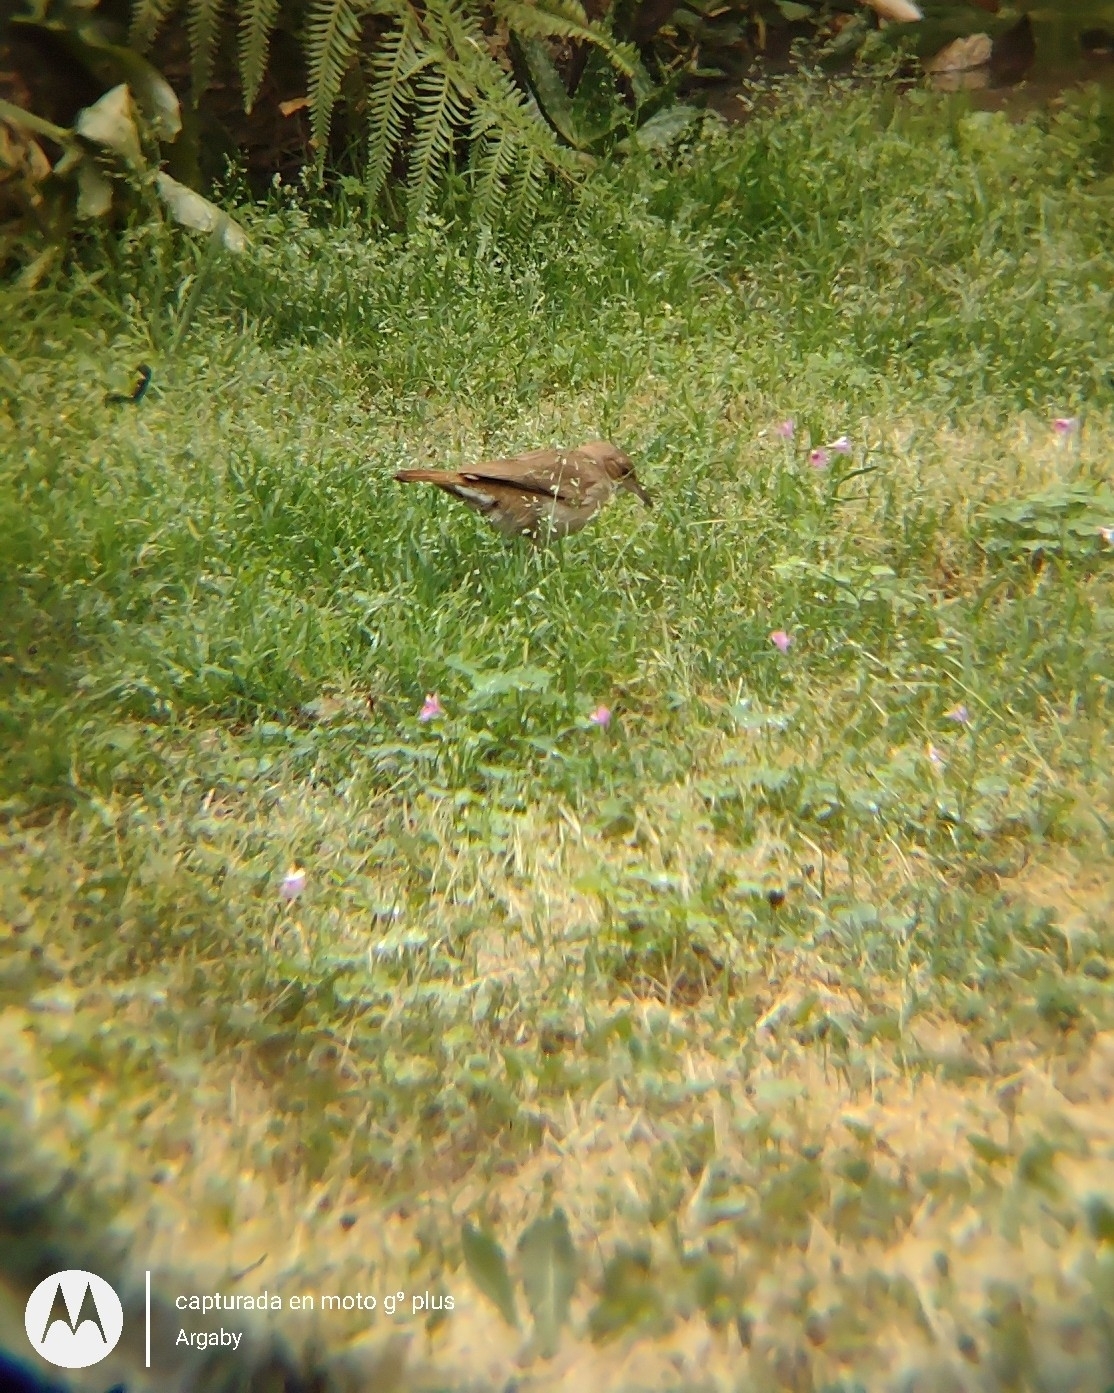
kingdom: Animalia
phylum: Chordata
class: Aves
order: Passeriformes
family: Furnariidae
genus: Furnarius
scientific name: Furnarius rufus
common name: Rufous hornero
